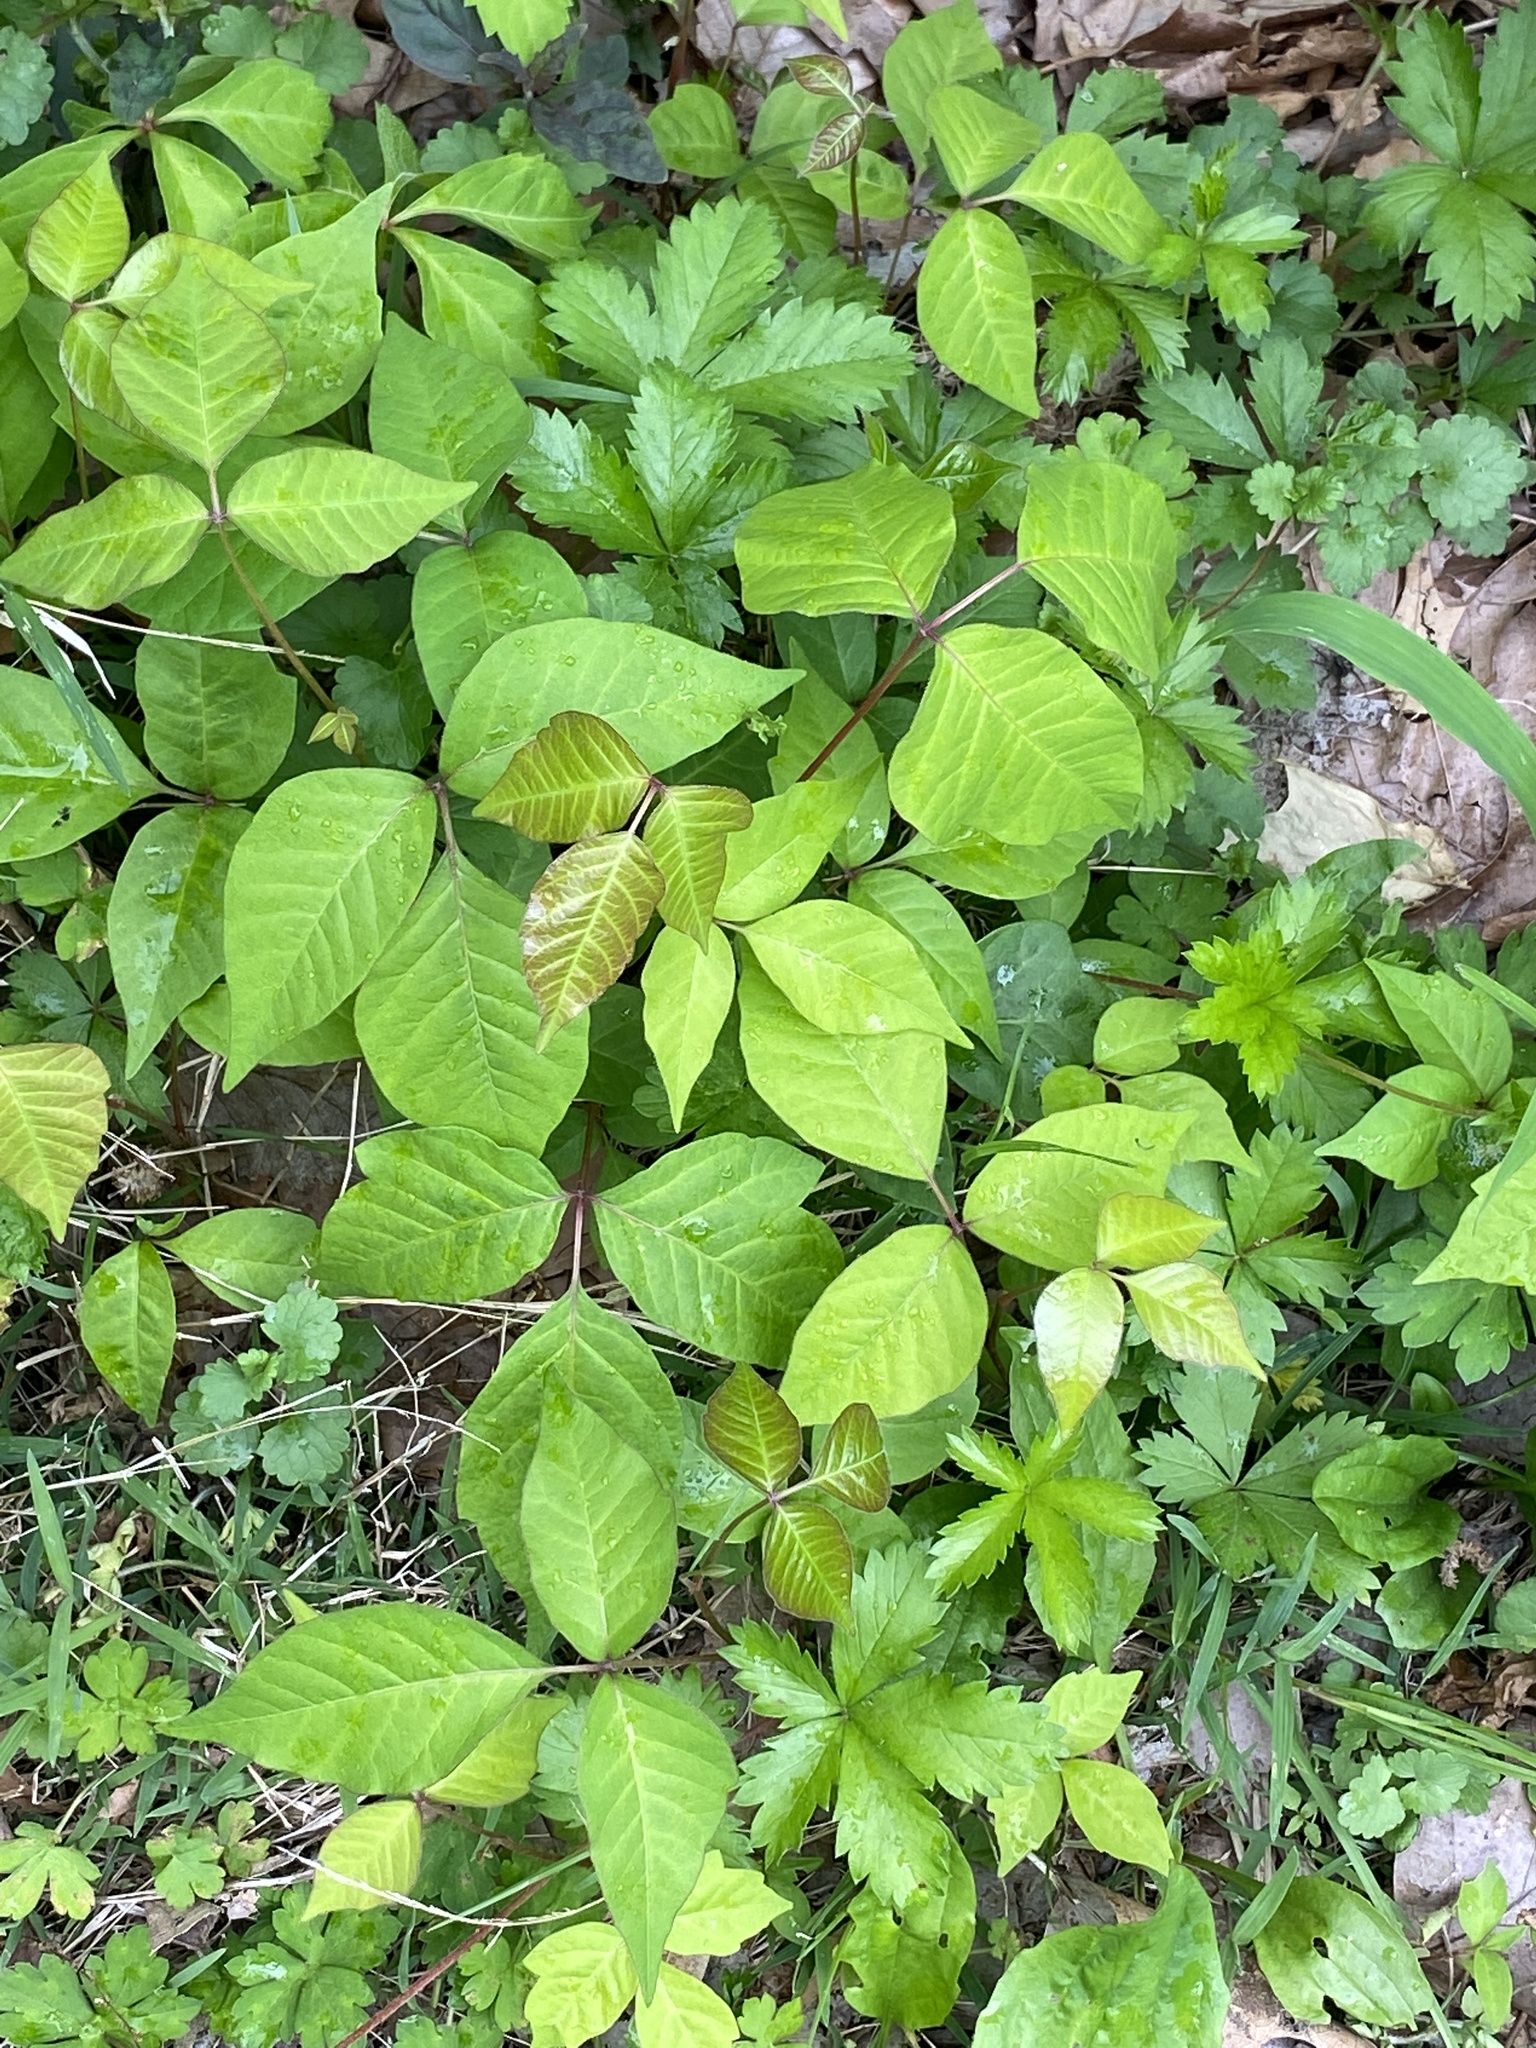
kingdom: Plantae
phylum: Tracheophyta
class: Magnoliopsida
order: Sapindales
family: Anacardiaceae
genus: Toxicodendron
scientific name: Toxicodendron radicans
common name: Poison ivy
